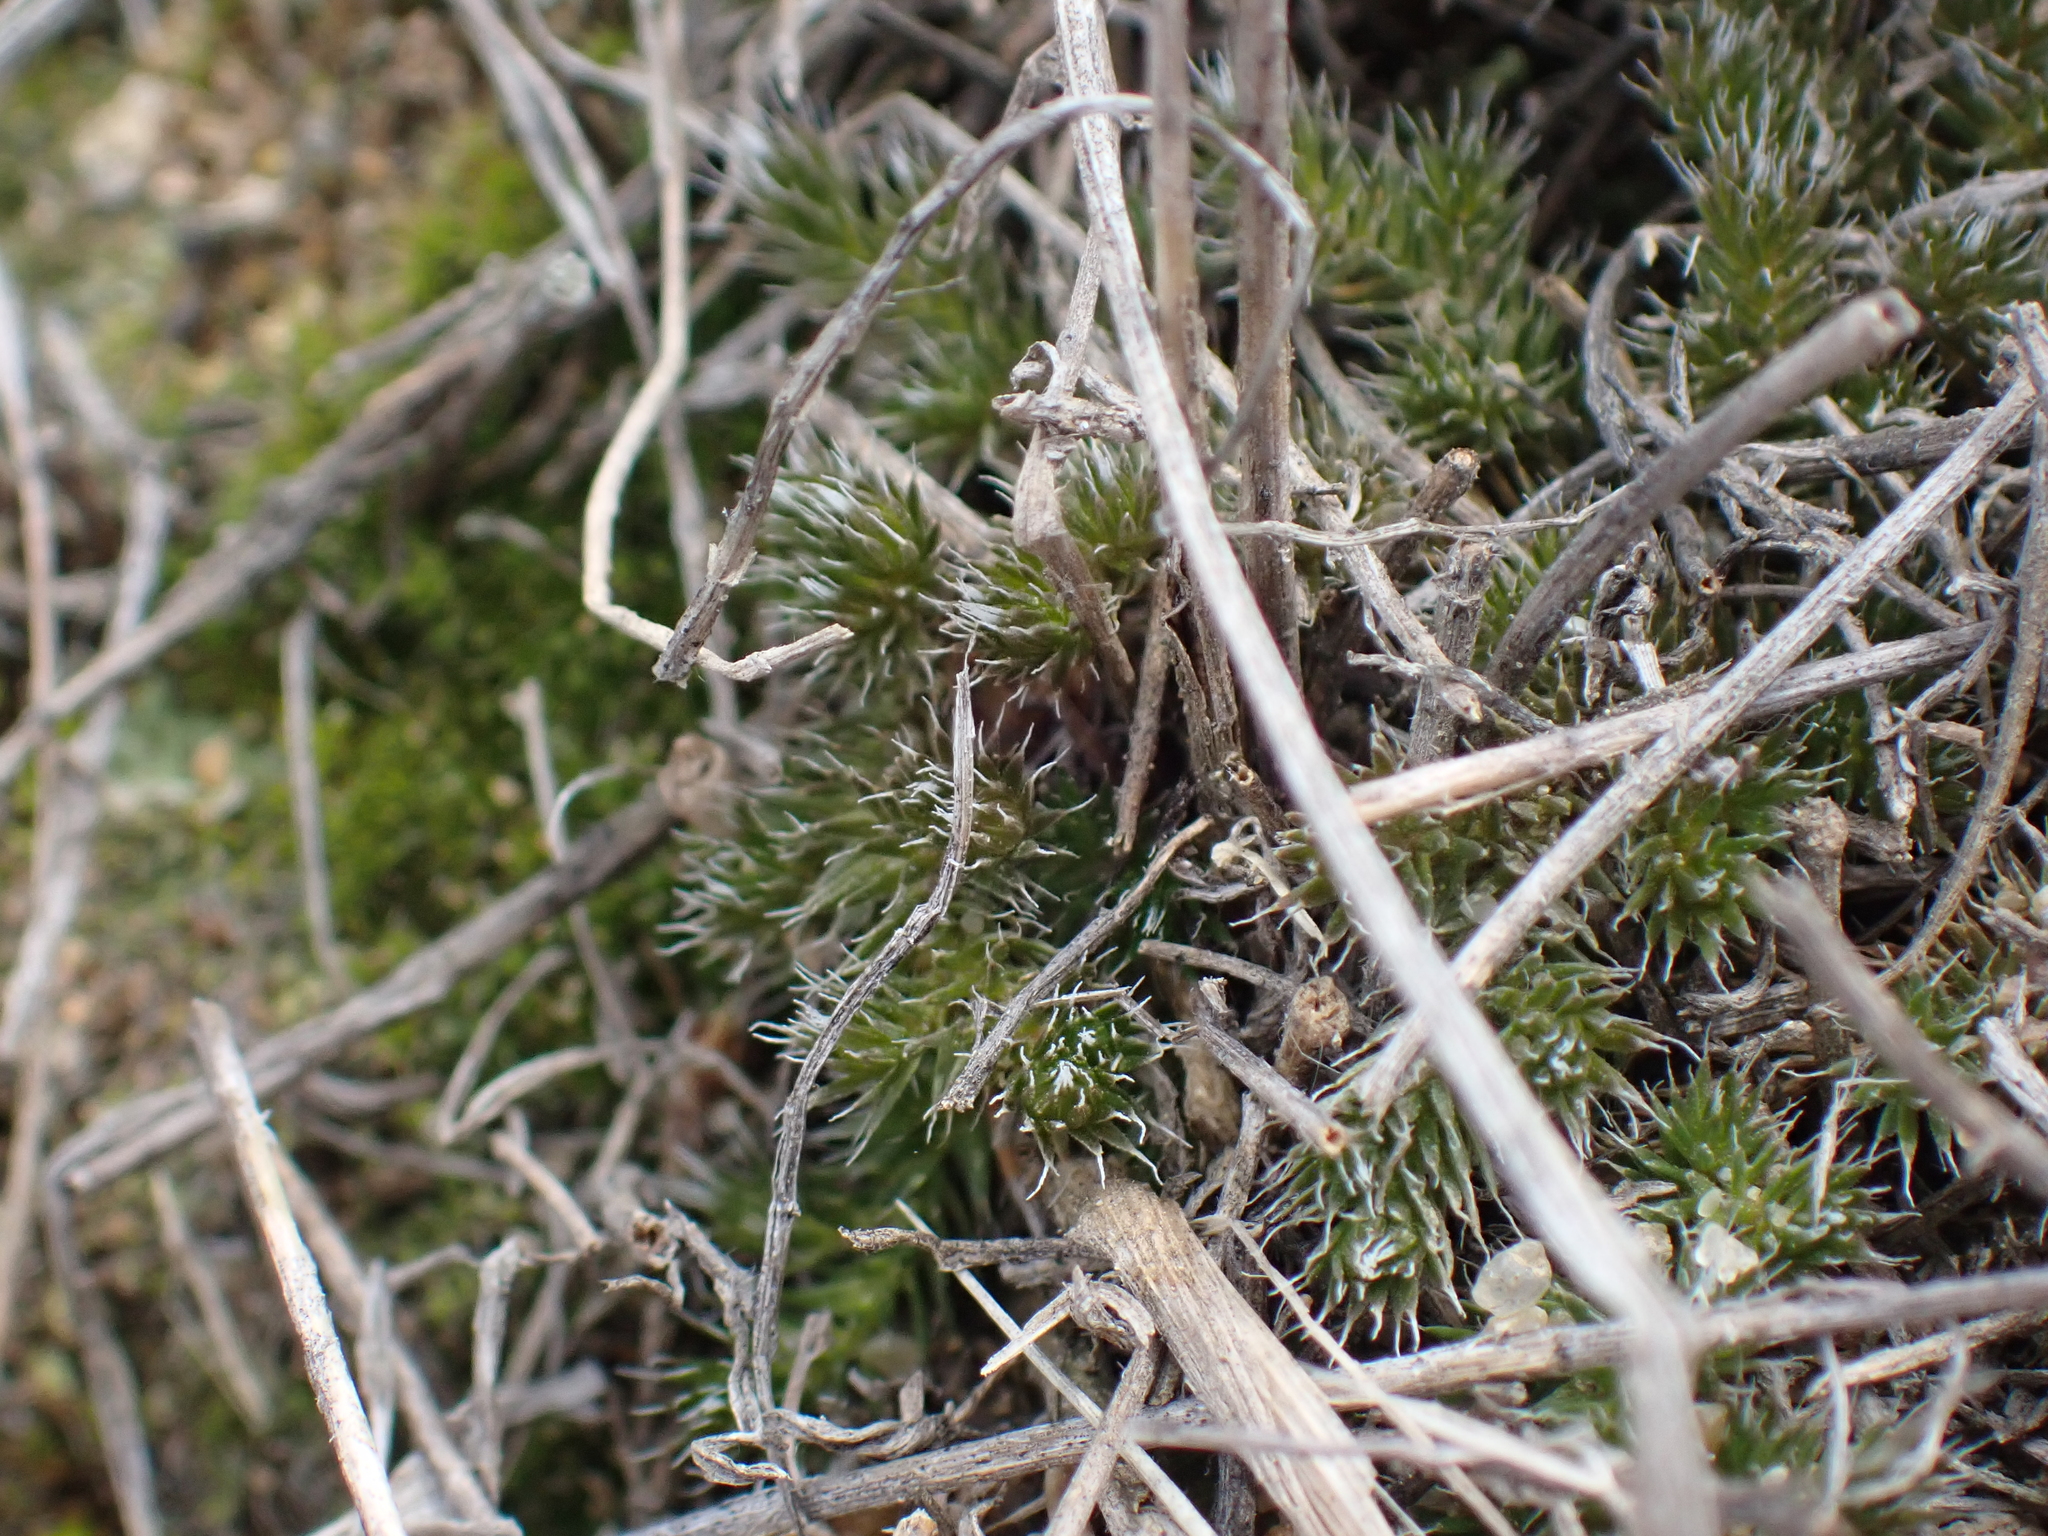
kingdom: Plantae
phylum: Tracheophyta
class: Lycopodiopsida
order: Selaginellales
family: Selaginellaceae
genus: Selaginella
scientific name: Selaginella densa
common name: Mountain spike-moss
